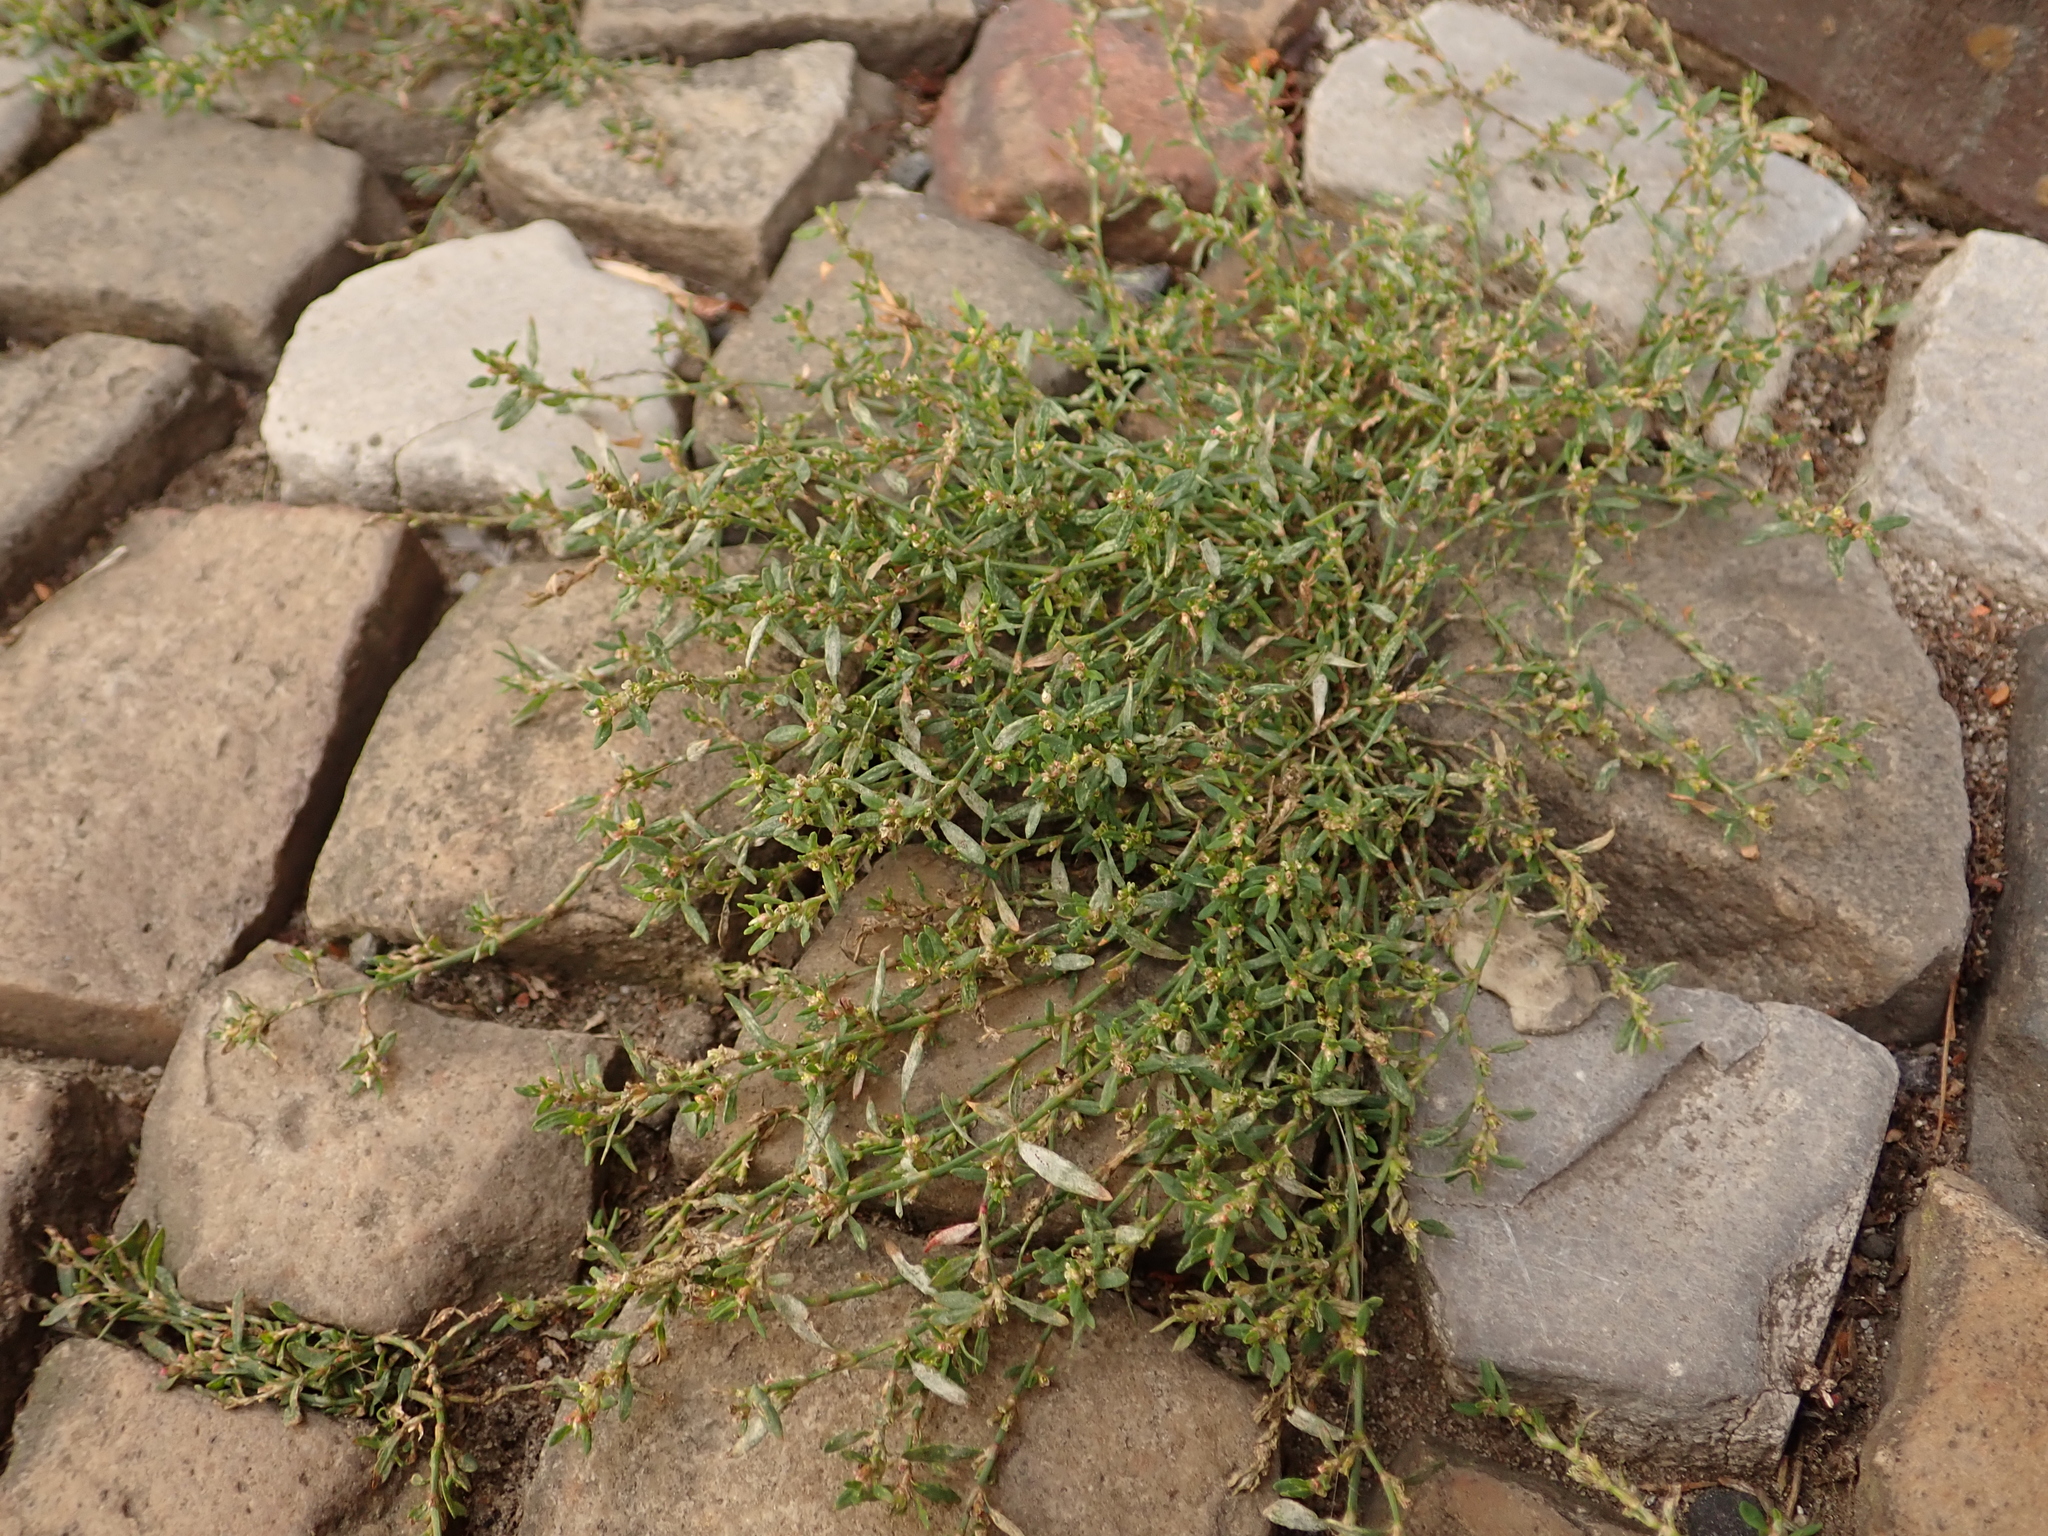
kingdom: Plantae
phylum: Tracheophyta
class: Magnoliopsida
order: Caryophyllales
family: Polygonaceae
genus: Polygonum
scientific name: Polygonum aviculare
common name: Prostrate knotweed
